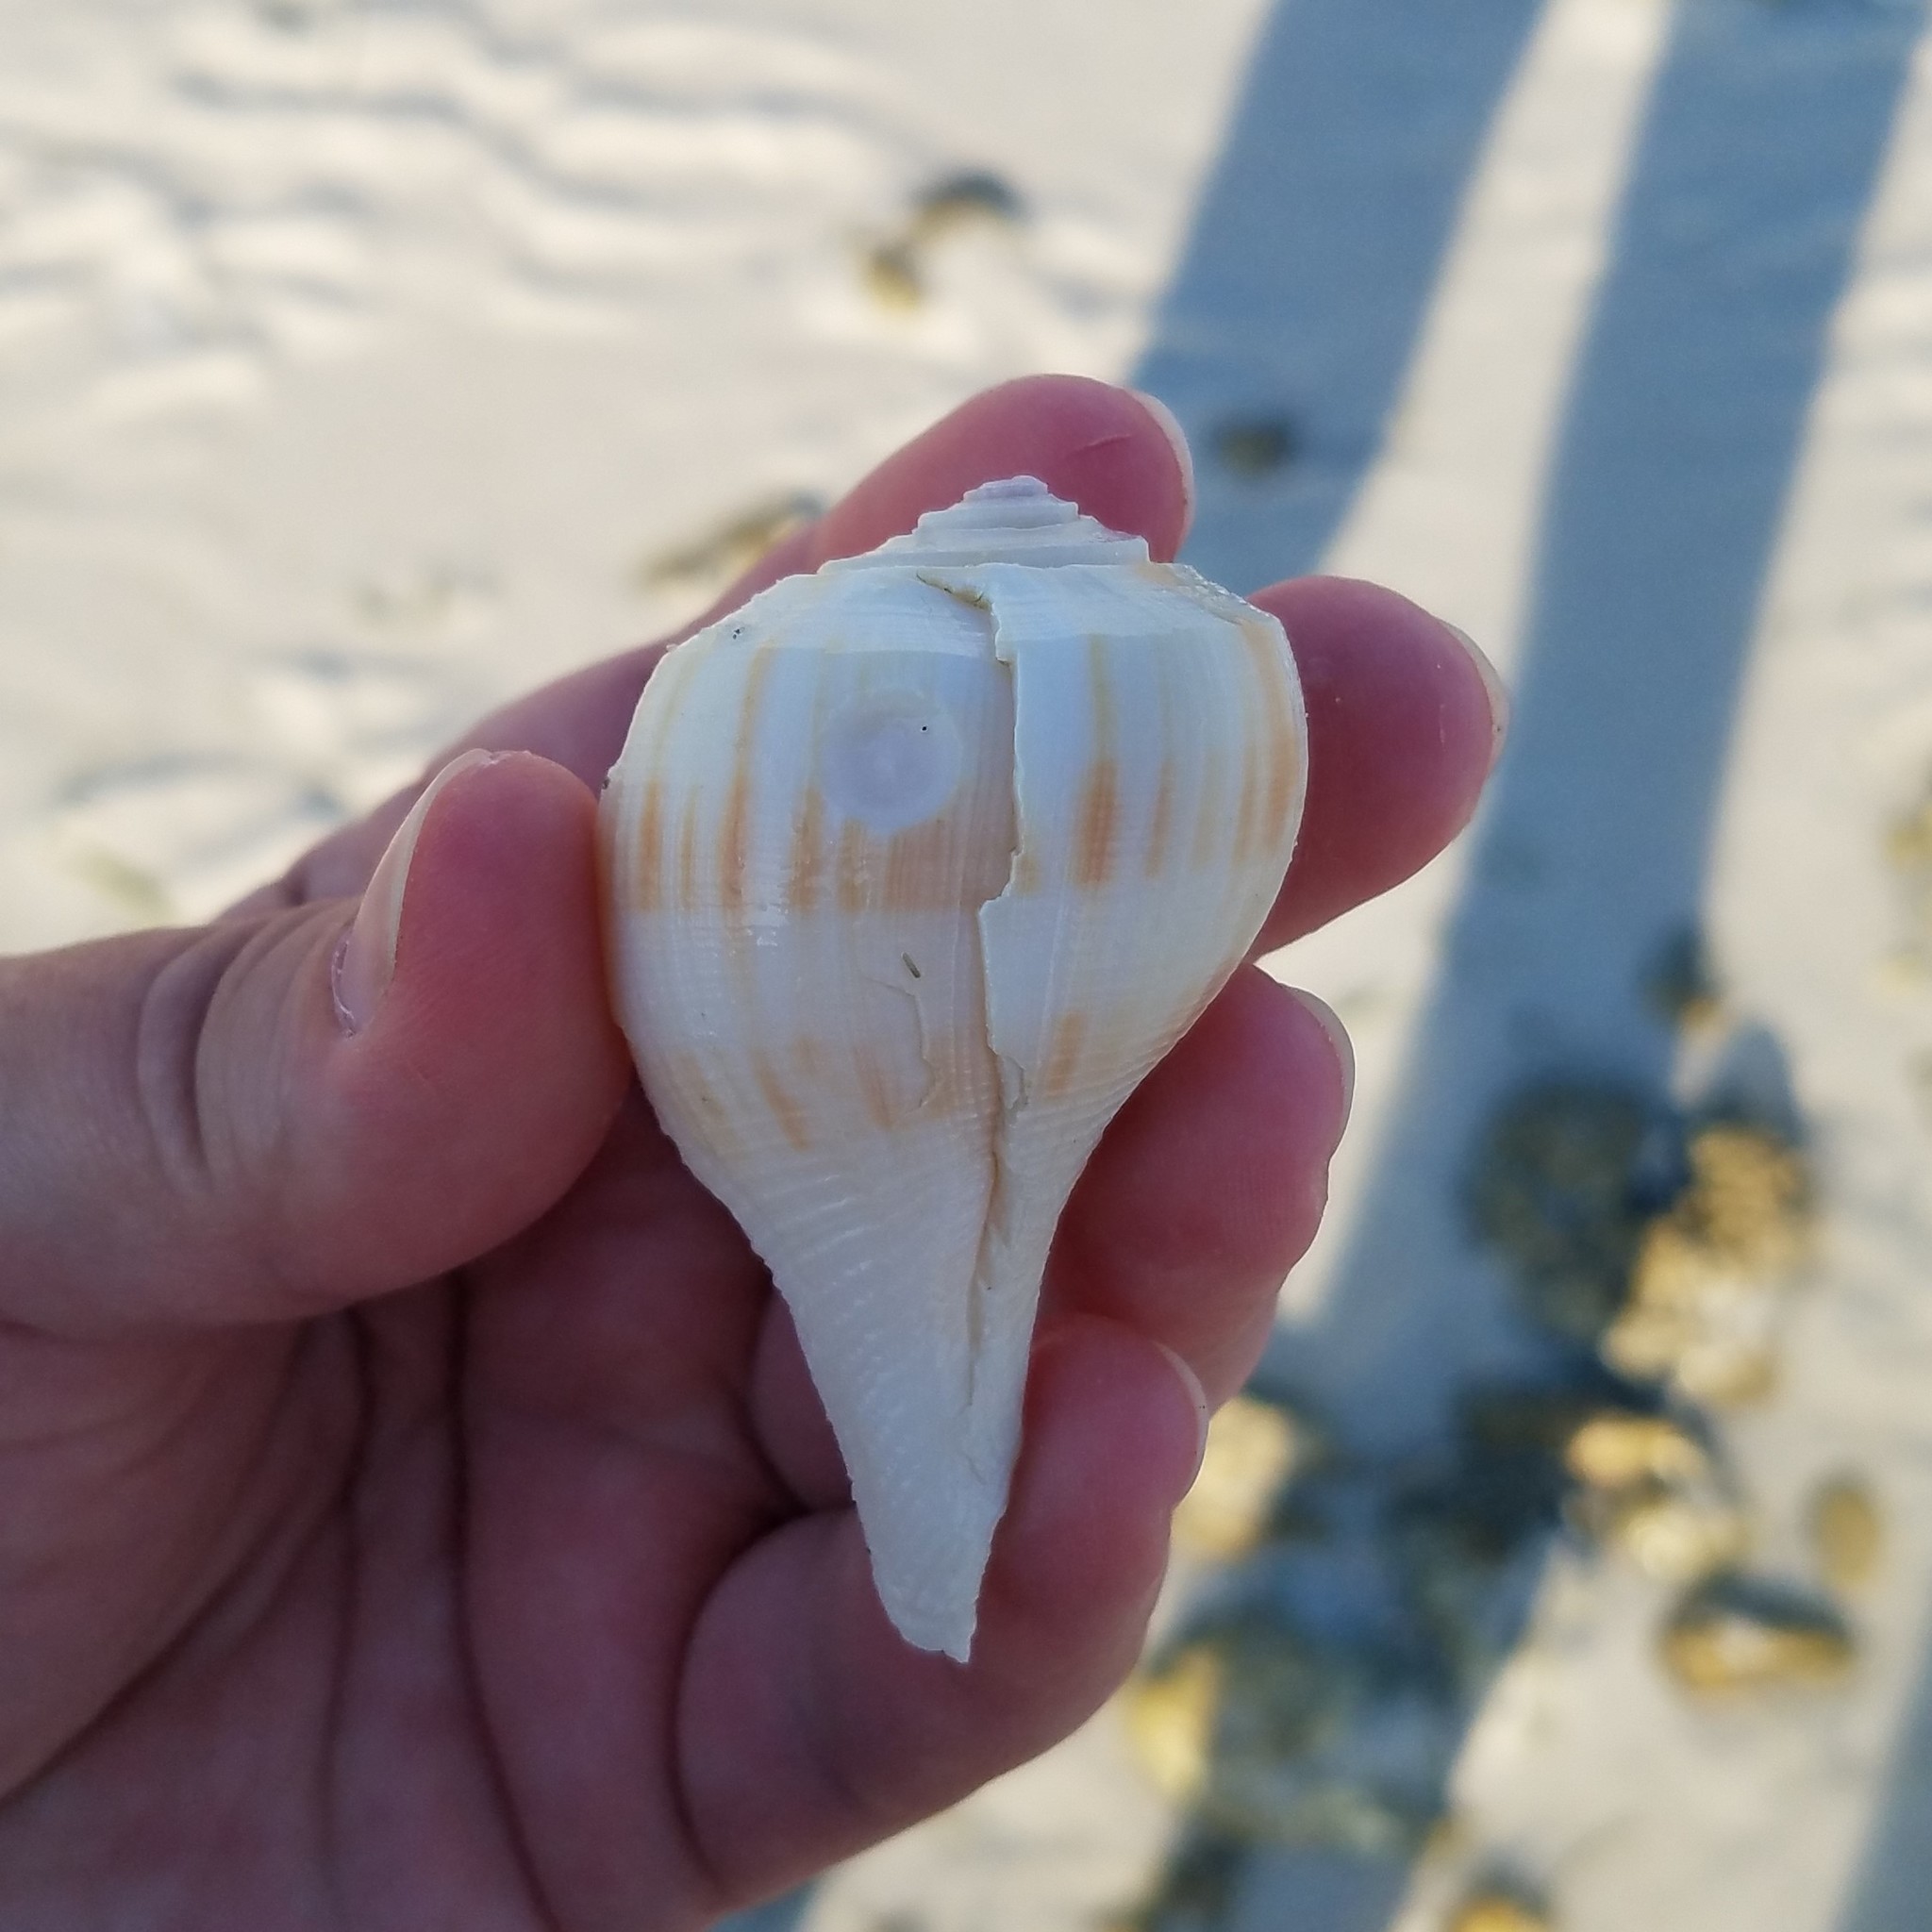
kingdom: Animalia
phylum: Mollusca
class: Gastropoda
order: Neogastropoda
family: Busyconidae
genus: Fulguropsis
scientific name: Fulguropsis pyruloides
